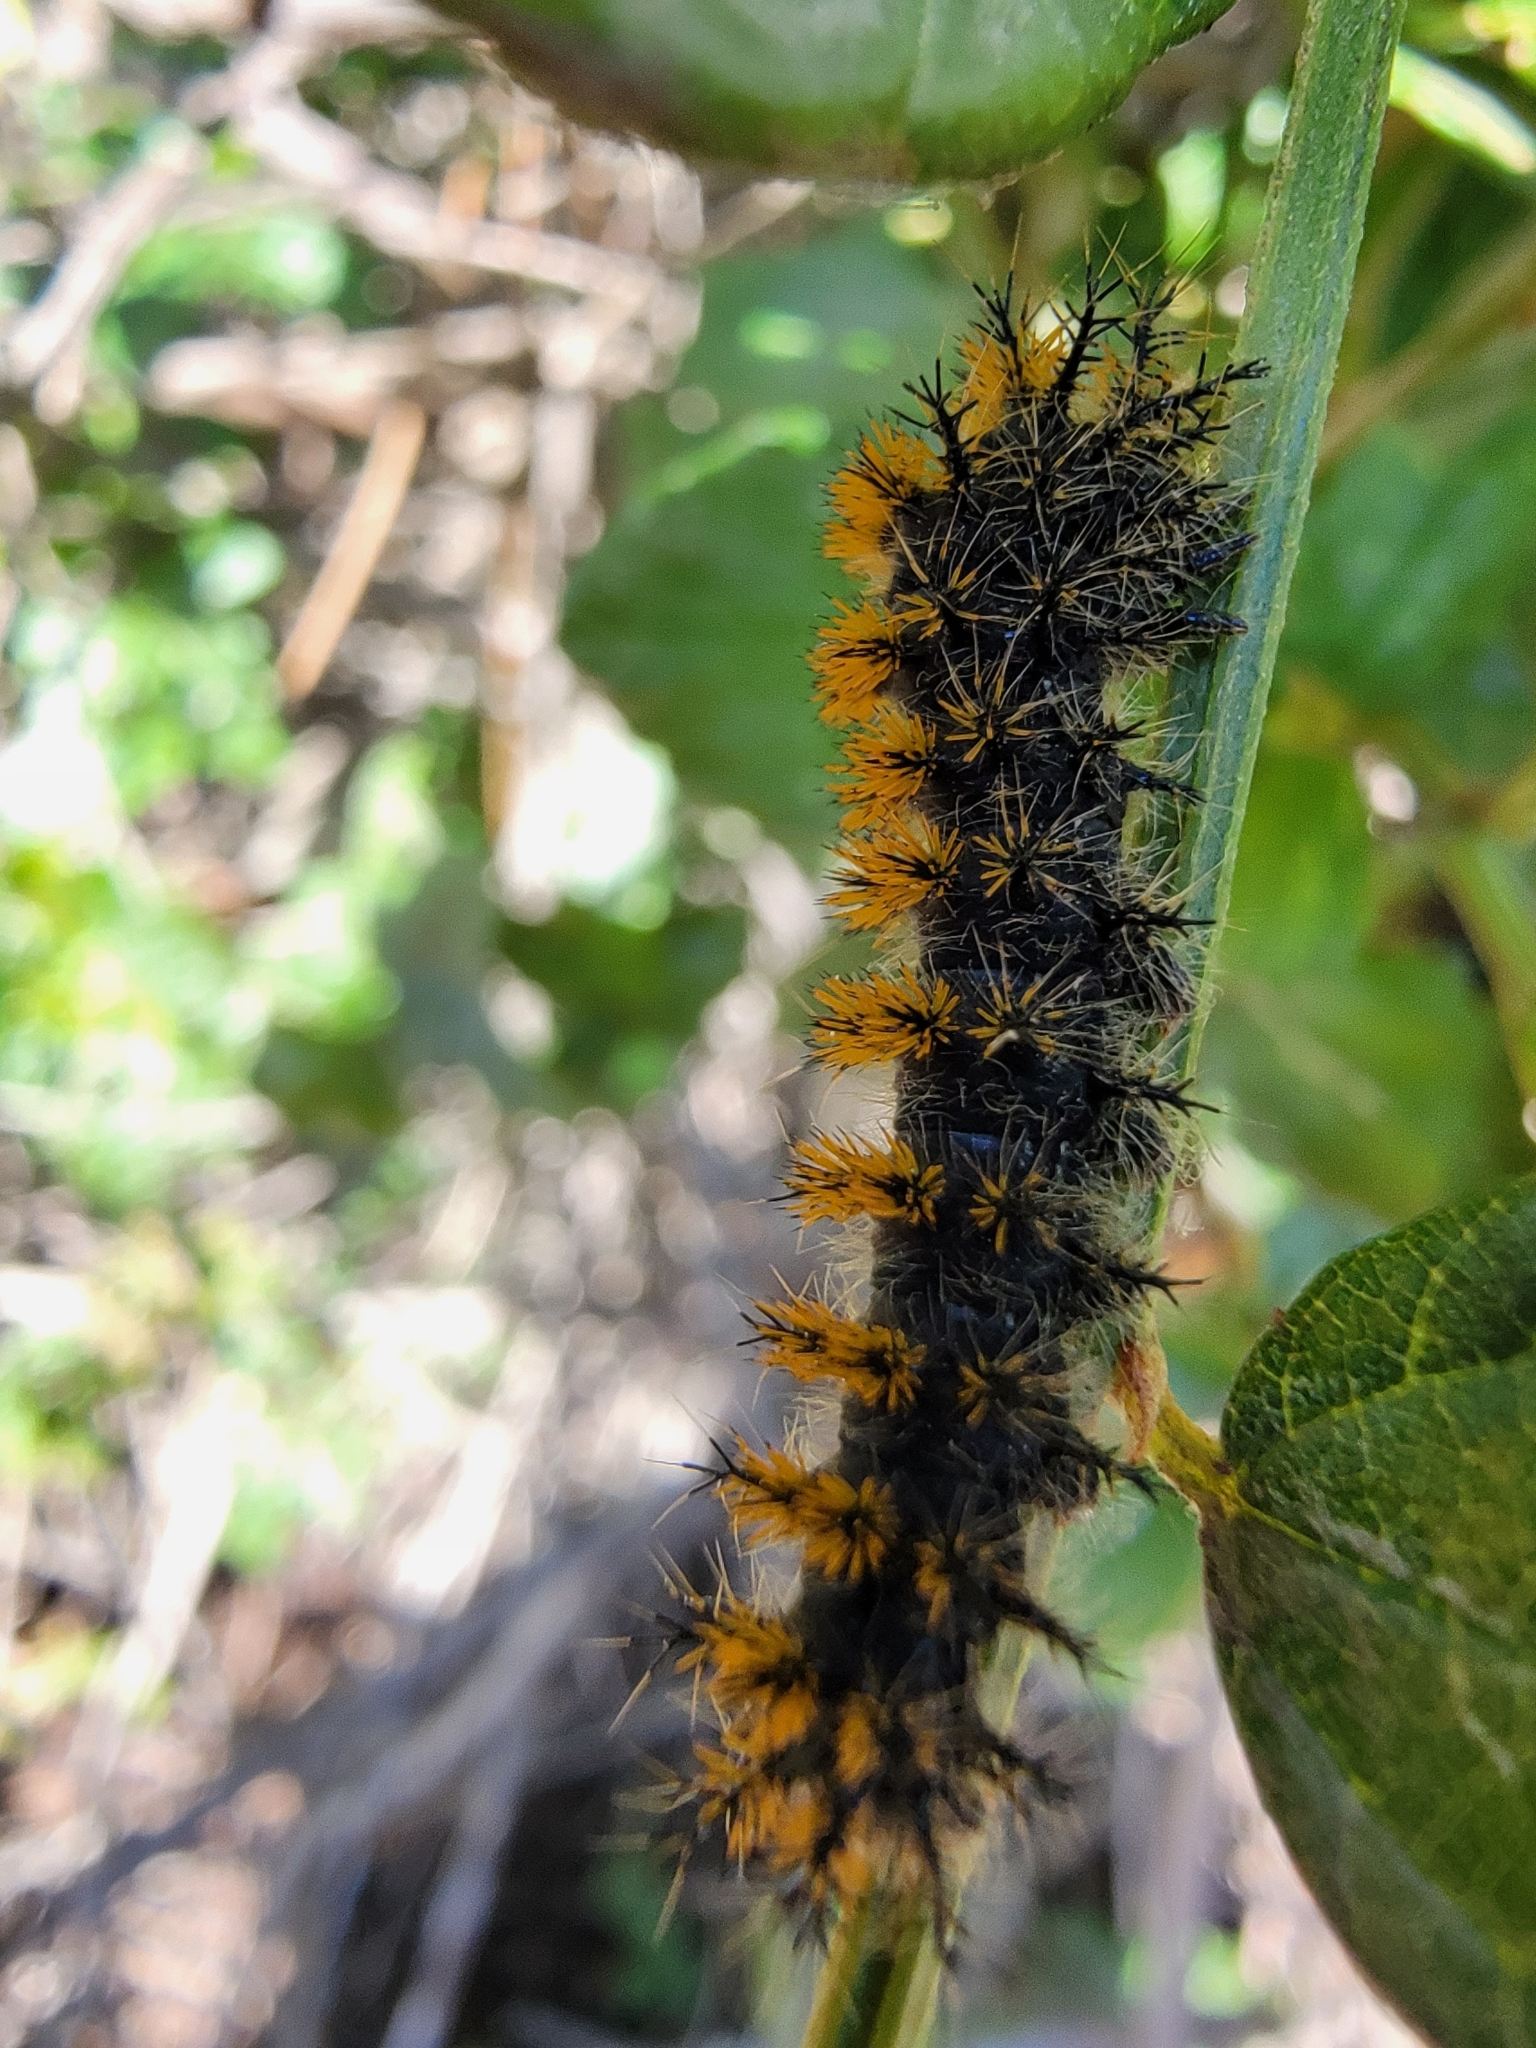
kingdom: Animalia
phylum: Arthropoda
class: Insecta
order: Lepidoptera
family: Saturniidae
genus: Hemileuca
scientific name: Hemileuca eglanterina
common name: Western sheepmoth
